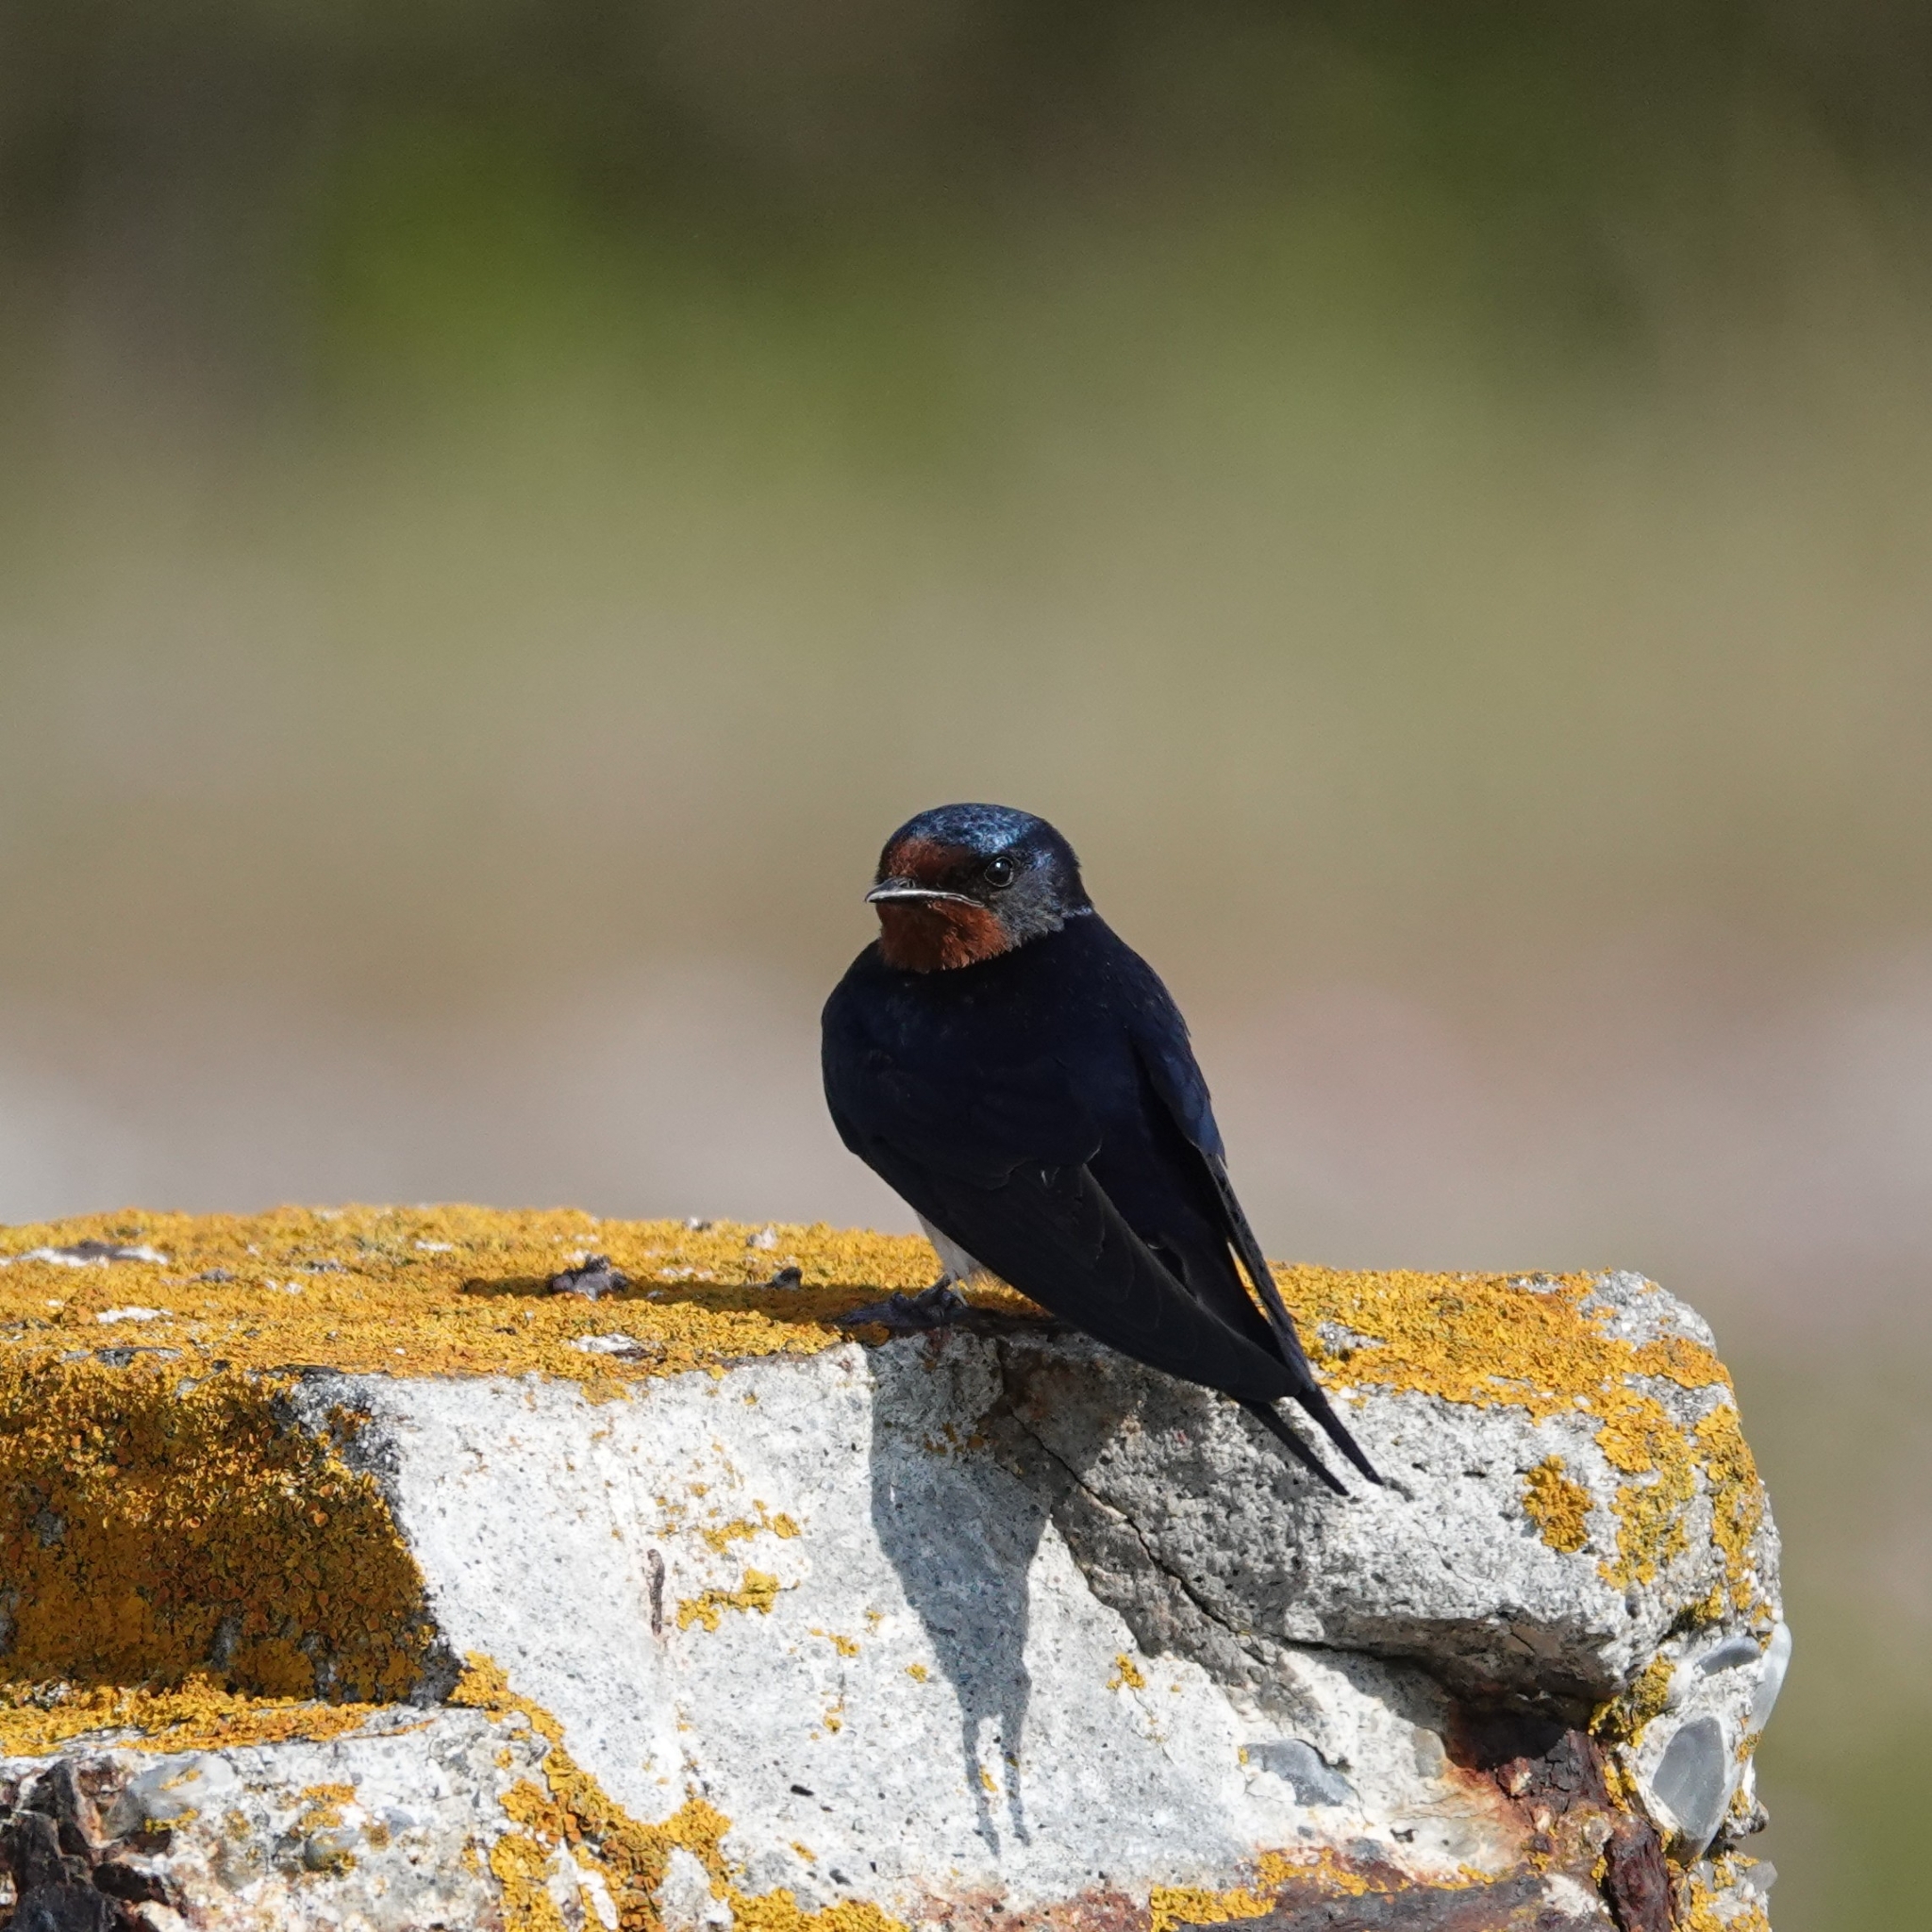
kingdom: Animalia
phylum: Chordata
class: Aves
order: Passeriformes
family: Hirundinidae
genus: Hirundo
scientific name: Hirundo rustica
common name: Barn swallow
